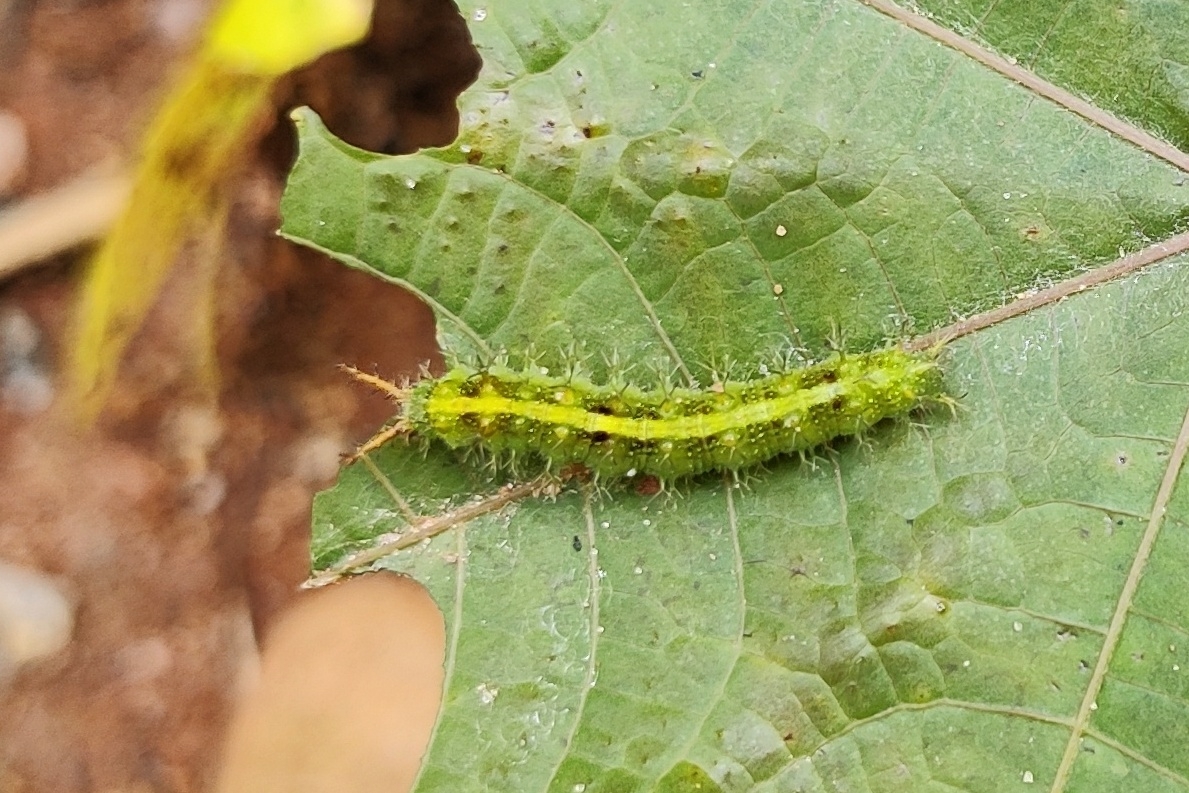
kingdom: Animalia
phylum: Arthropoda
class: Insecta
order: Lepidoptera
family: Nymphalidae
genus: Ariadne
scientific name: Ariadne merione
